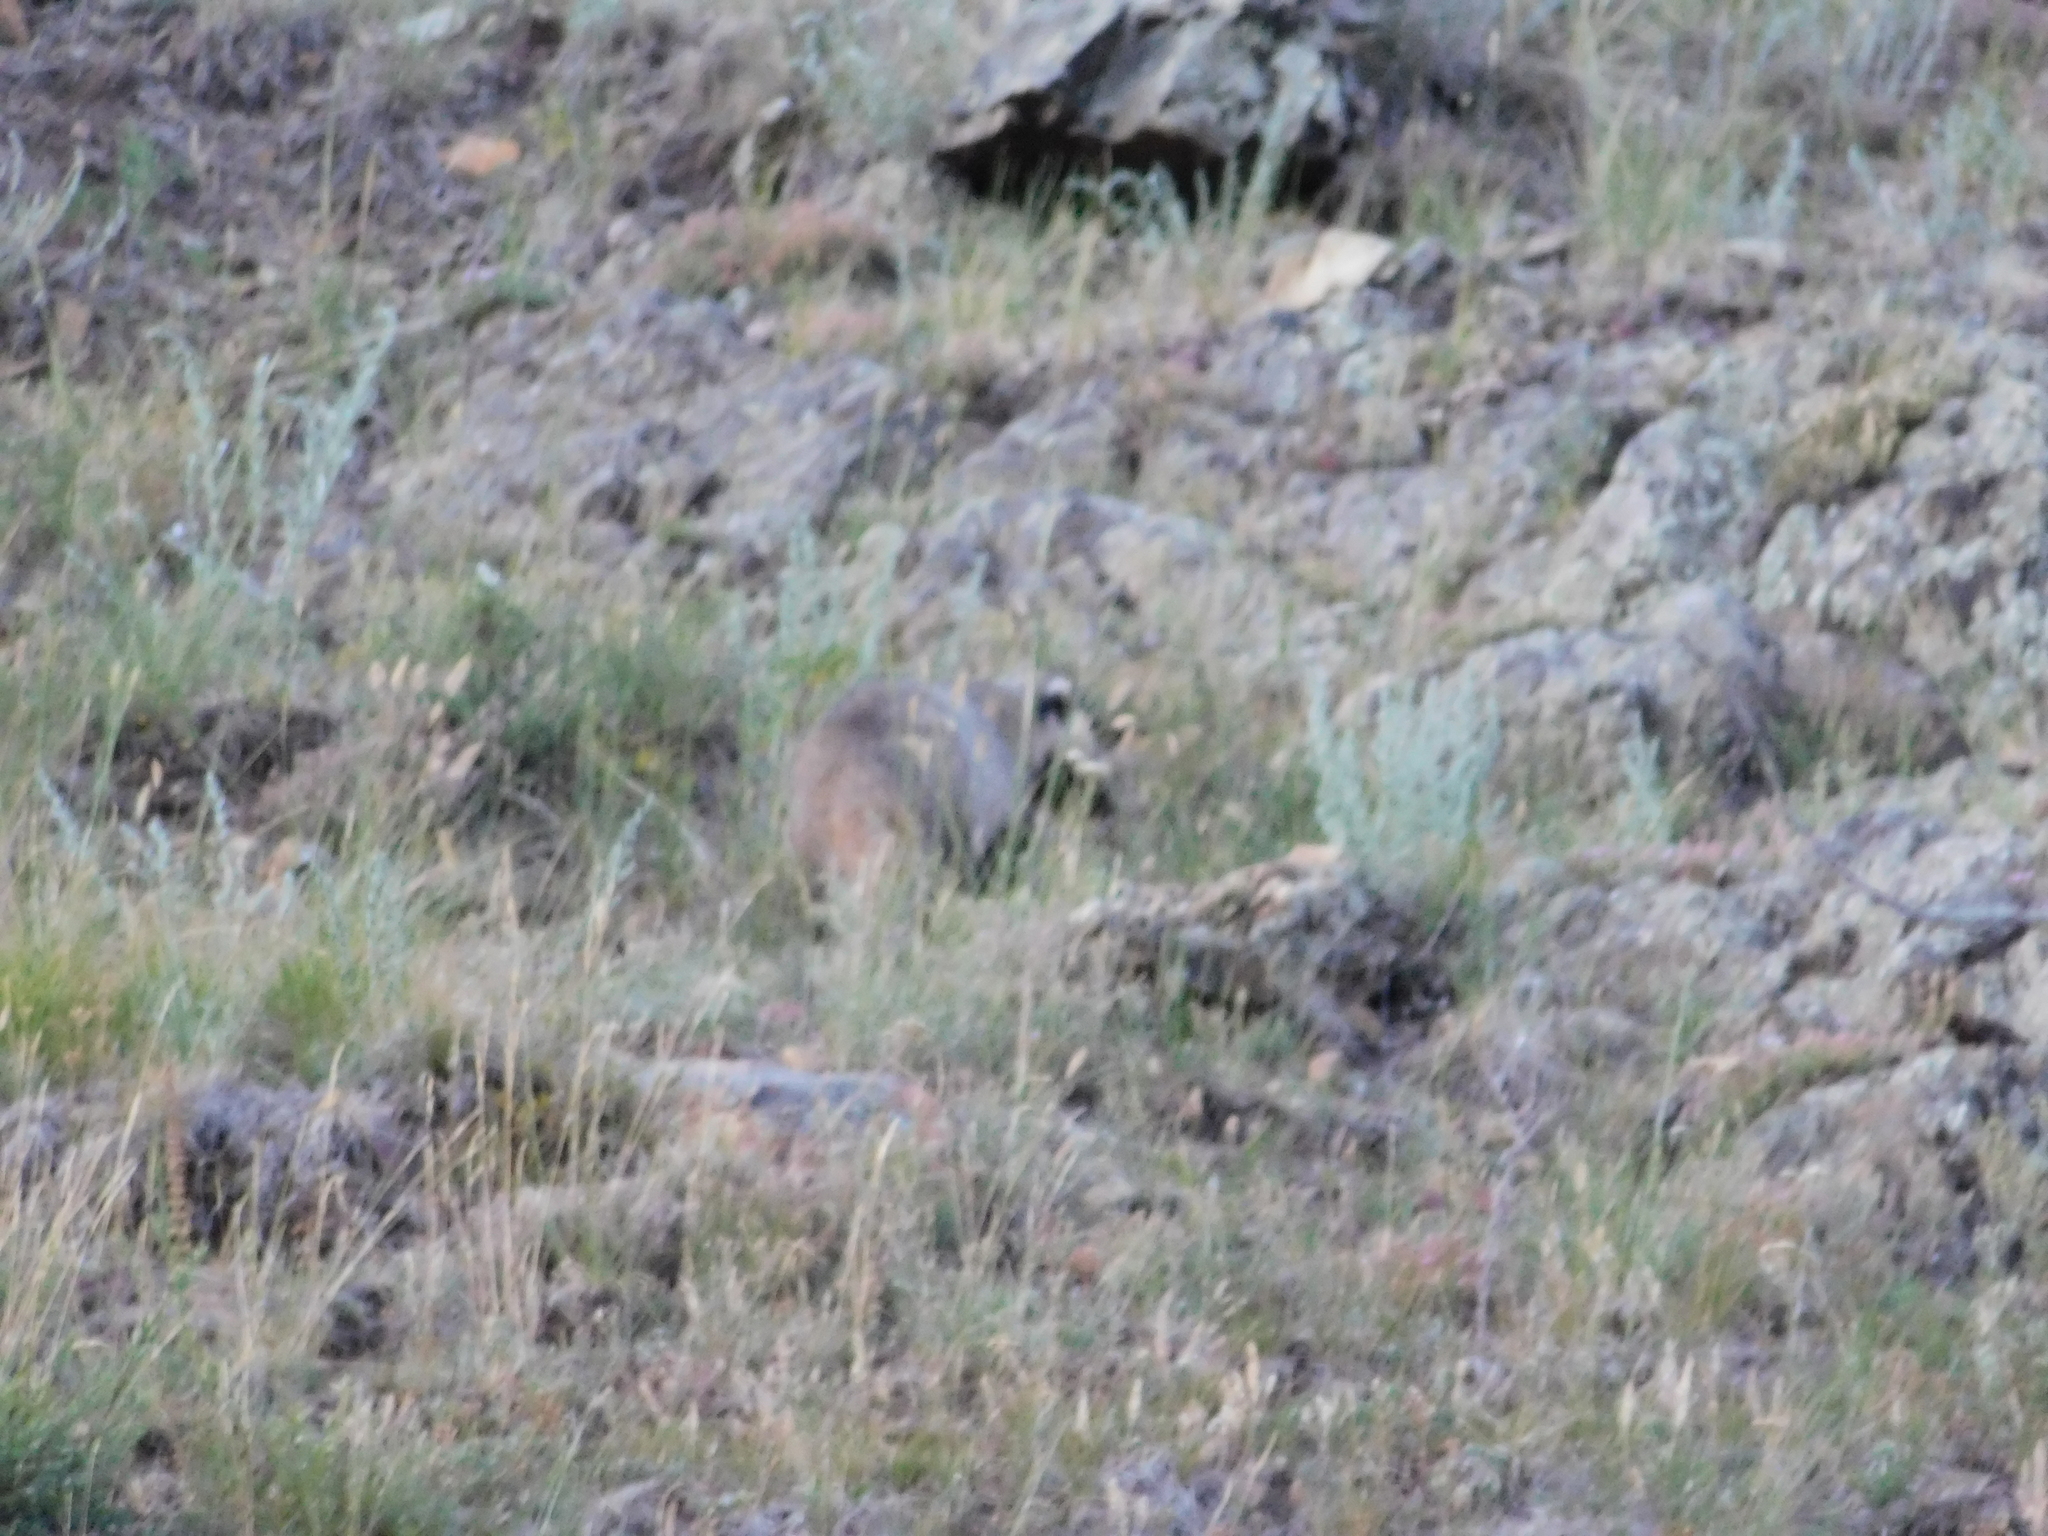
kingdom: Animalia
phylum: Chordata
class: Mammalia
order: Carnivora
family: Mustelidae
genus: Meles
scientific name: Meles leucurus
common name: Asian badger
